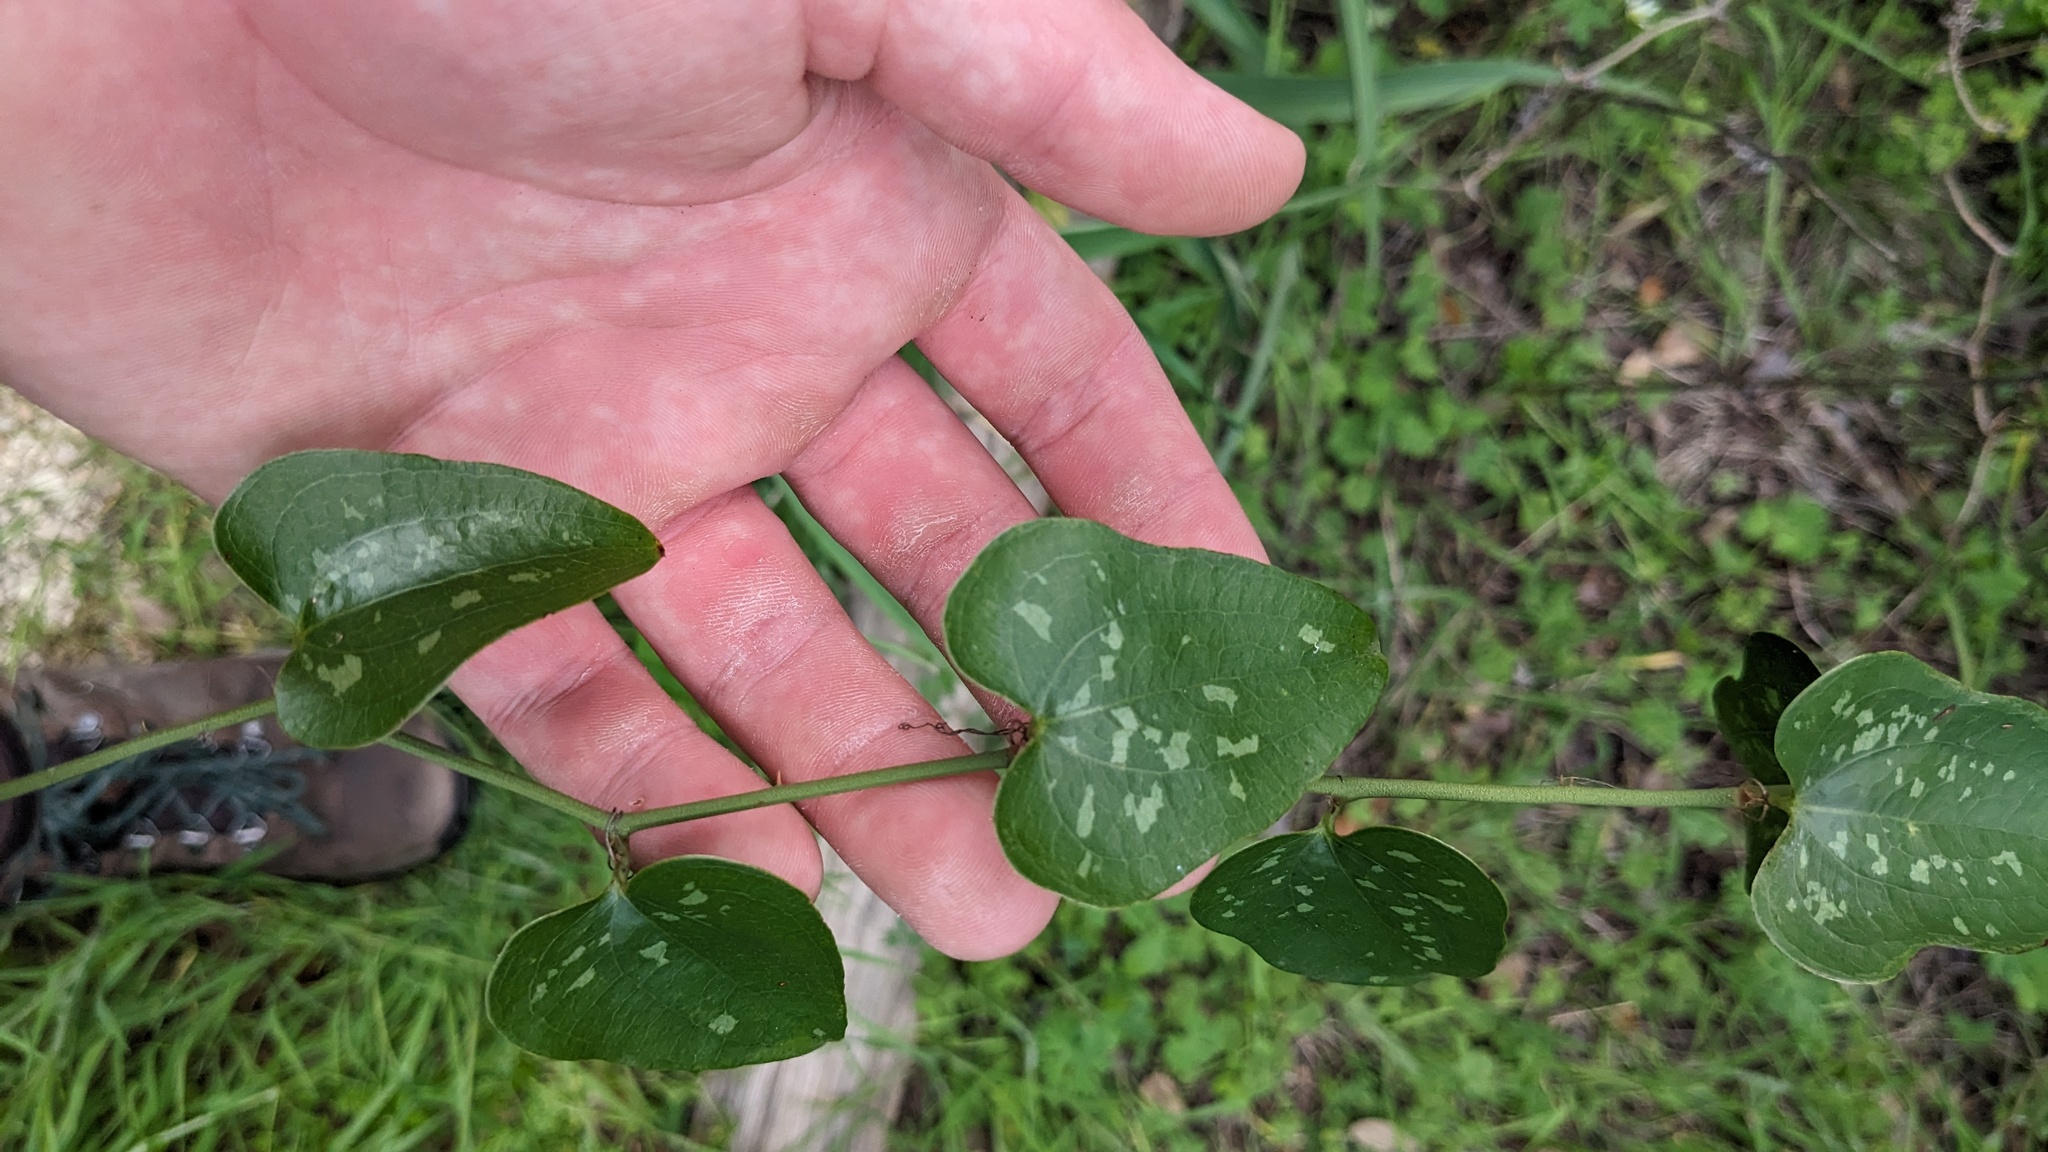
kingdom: Plantae
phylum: Tracheophyta
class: Liliopsida
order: Liliales
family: Smilacaceae
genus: Smilax
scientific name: Smilax bona-nox
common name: Catbrier
